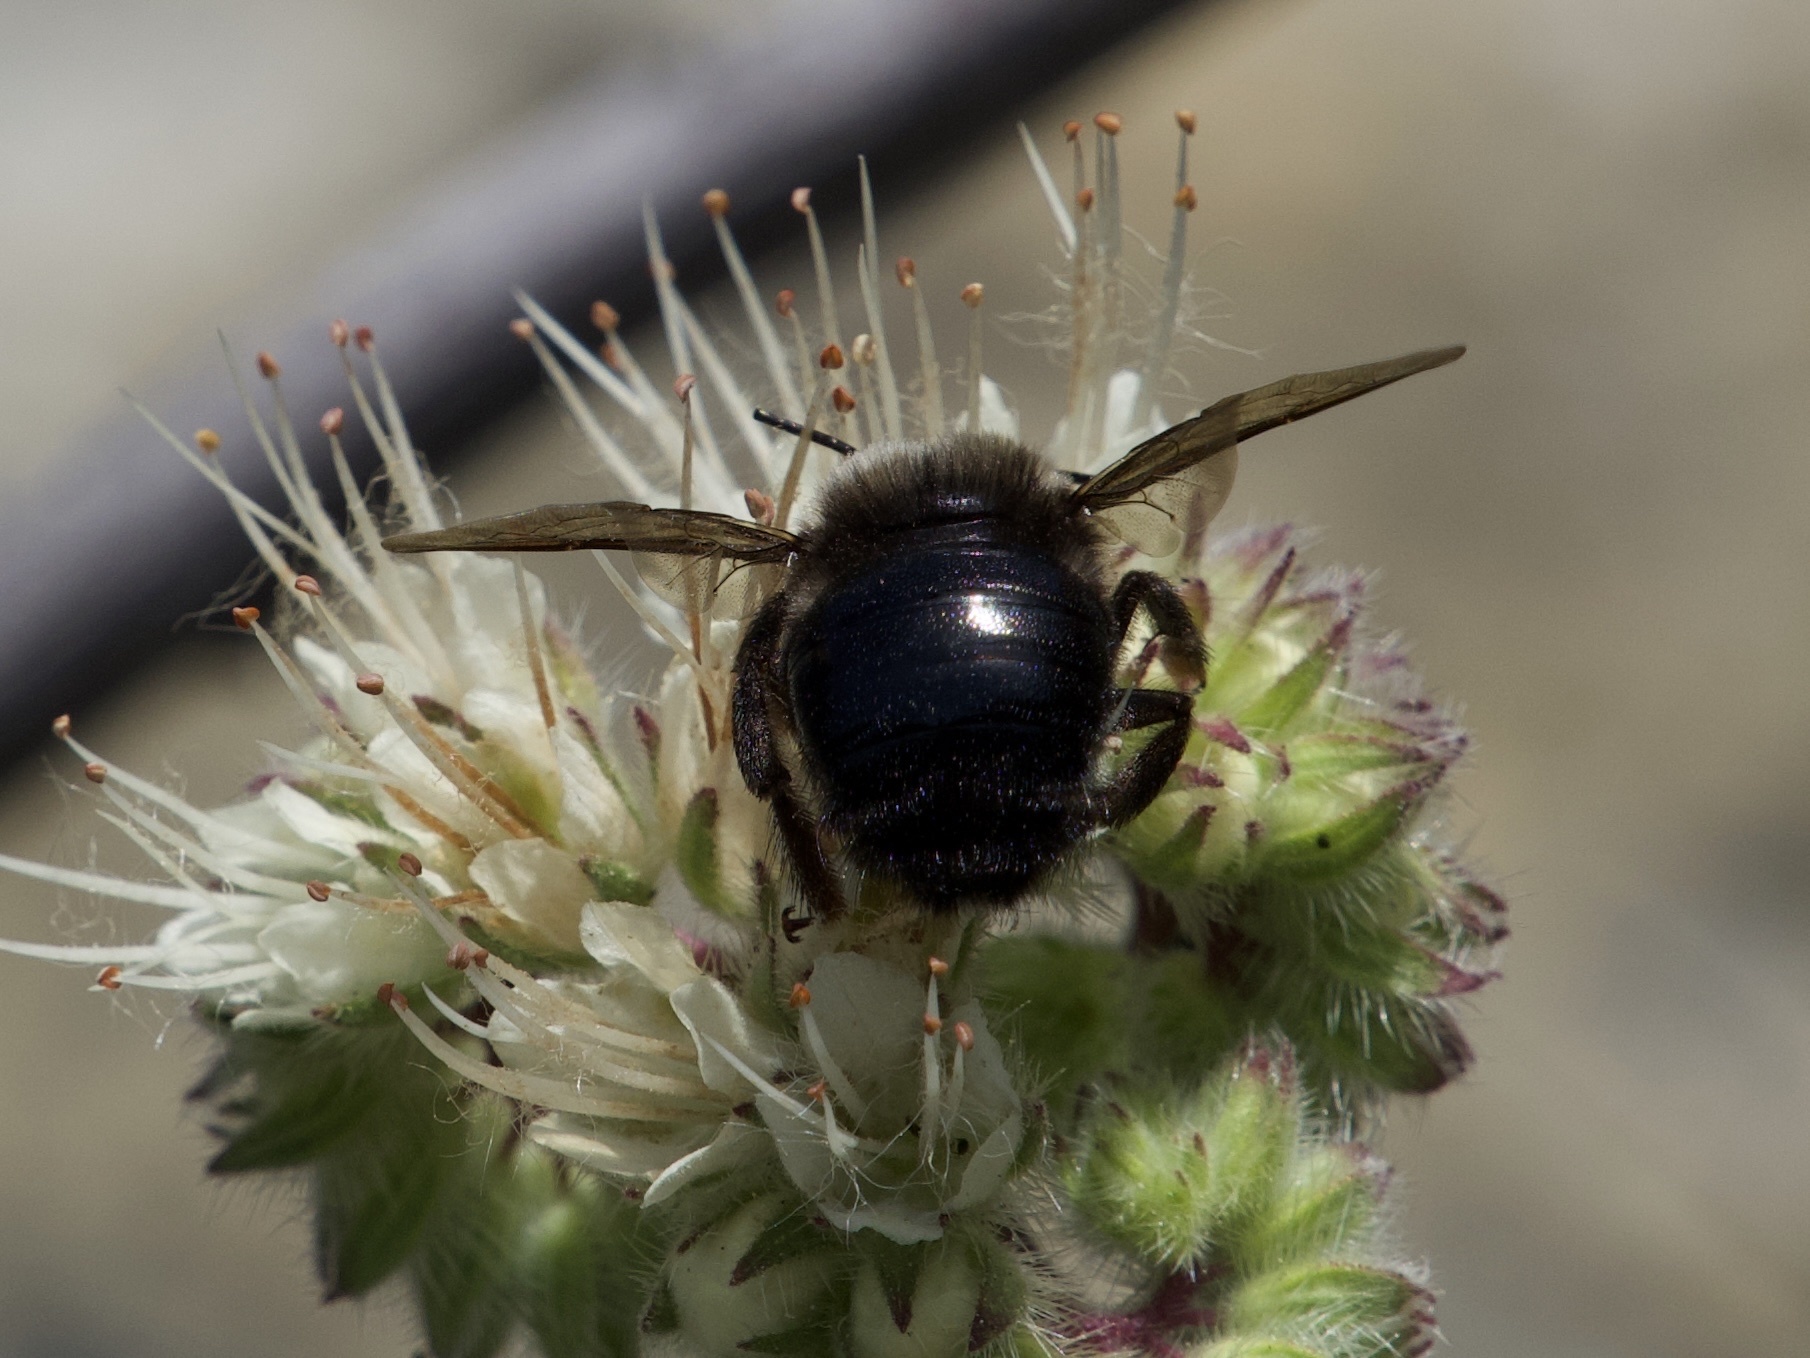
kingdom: Animalia
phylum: Arthropoda
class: Insecta
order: Hymenoptera
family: Apidae
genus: Xylocopa
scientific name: Xylocopa tabaniformis
